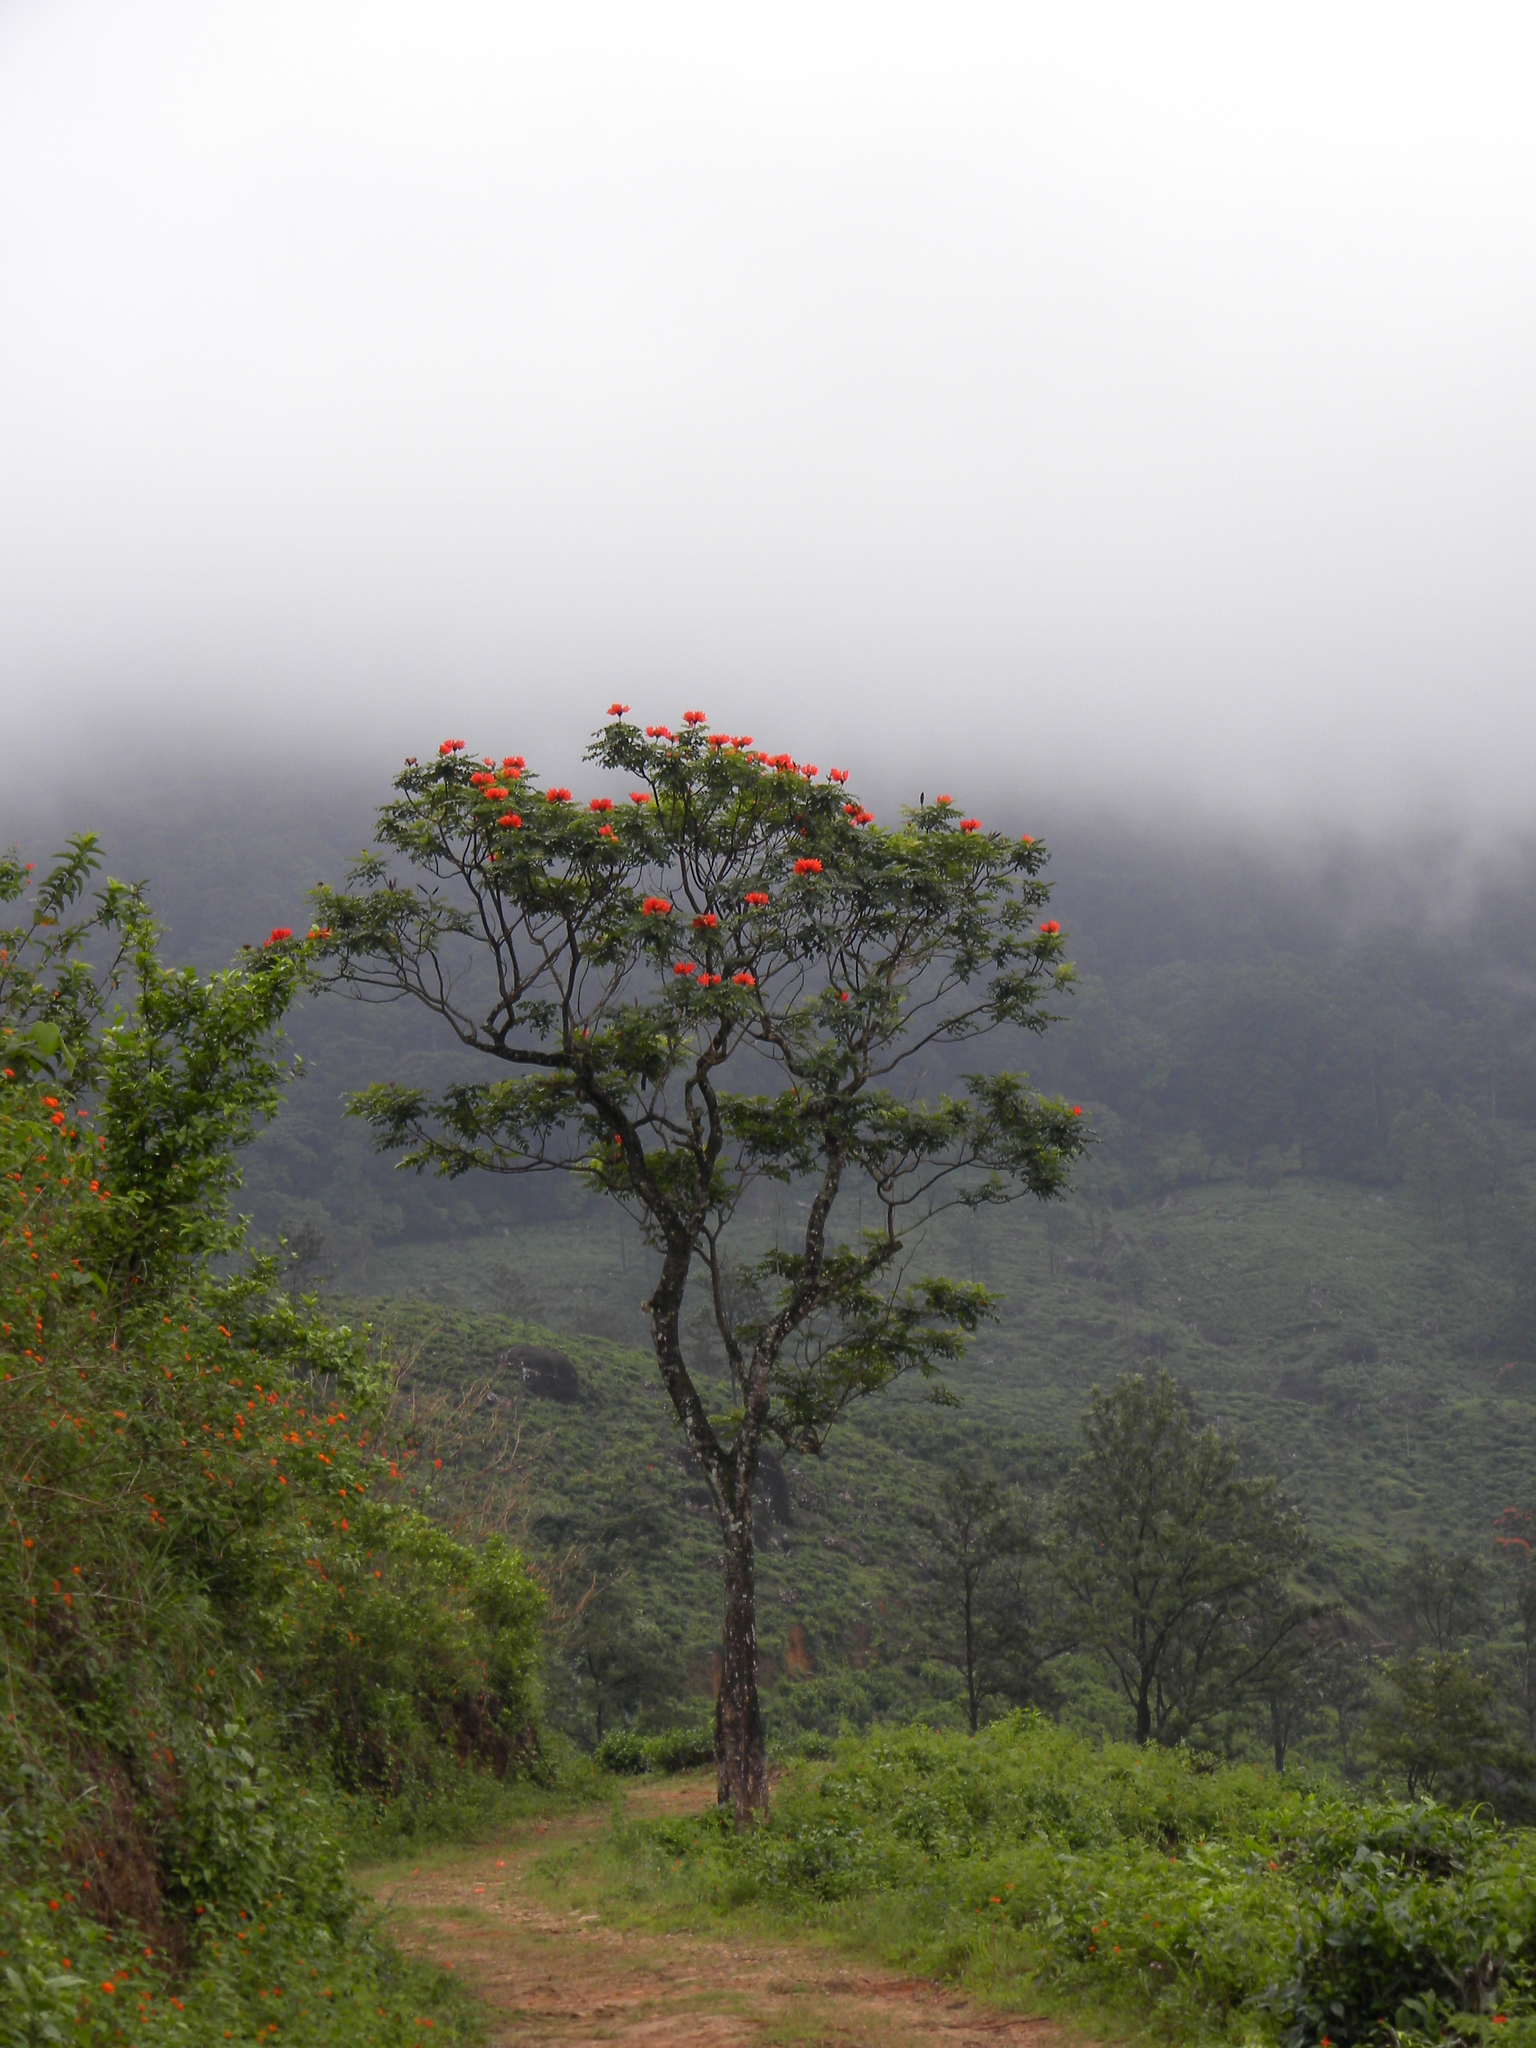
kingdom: Plantae
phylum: Tracheophyta
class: Magnoliopsida
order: Lamiales
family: Bignoniaceae
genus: Spathodea
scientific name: Spathodea campanulata
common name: African tuliptree
